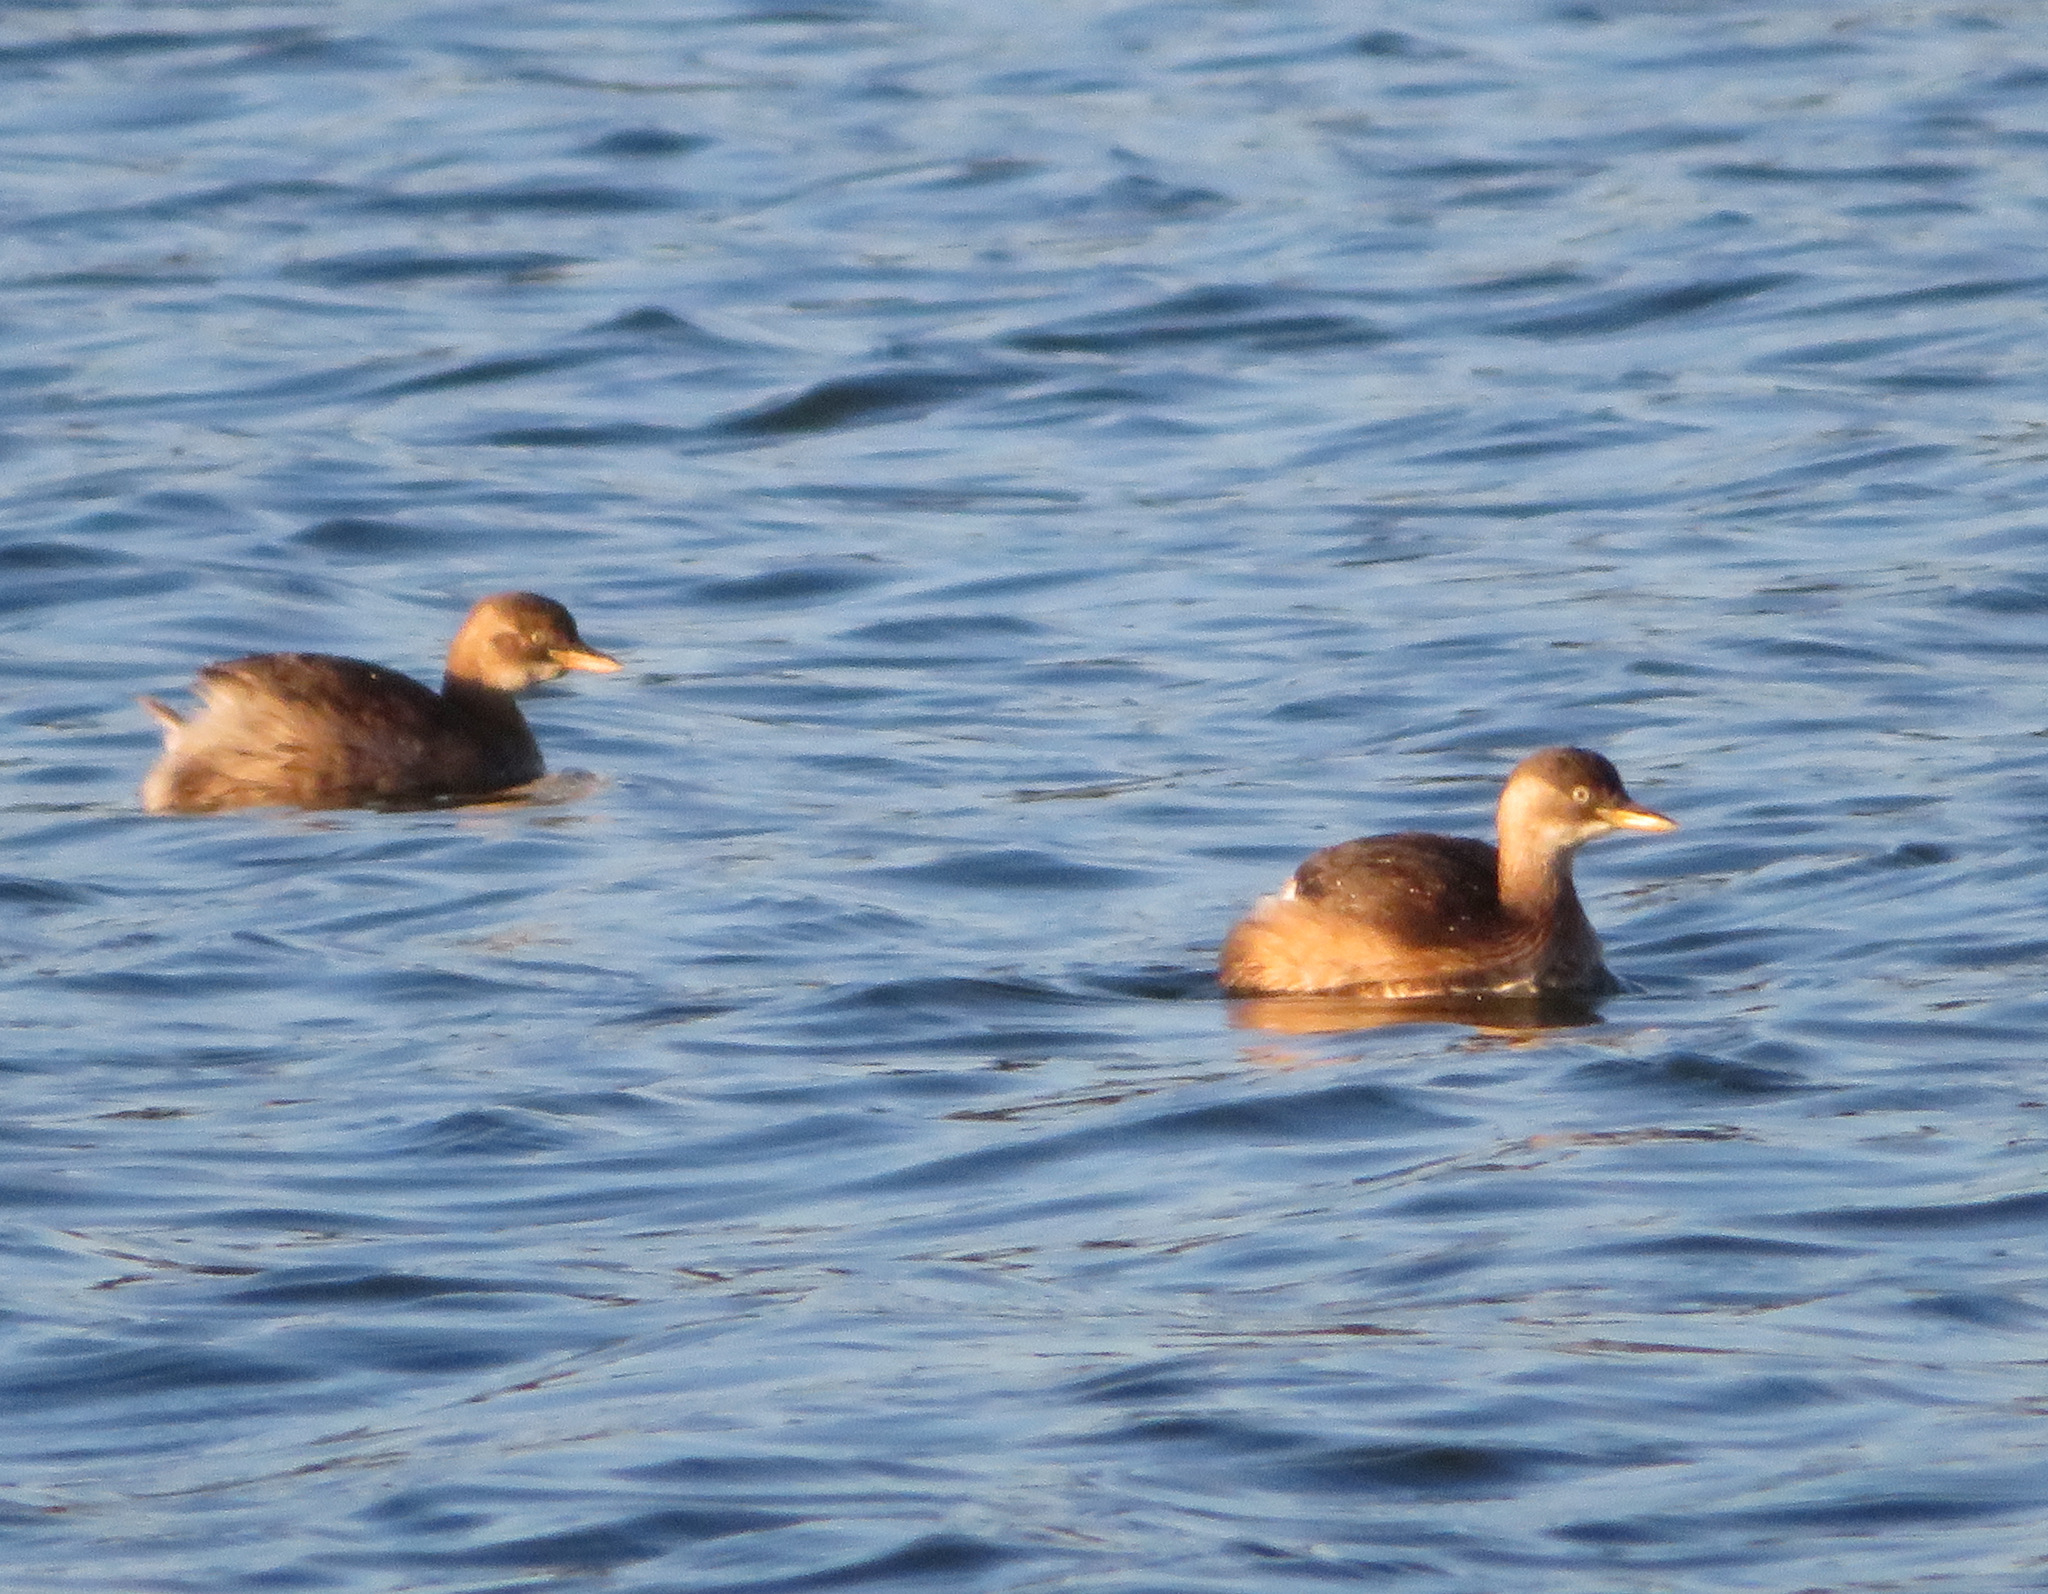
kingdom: Animalia
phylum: Chordata
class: Aves
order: Podicipediformes
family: Podicipedidae
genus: Tachybaptus
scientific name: Tachybaptus ruficollis
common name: Little grebe
